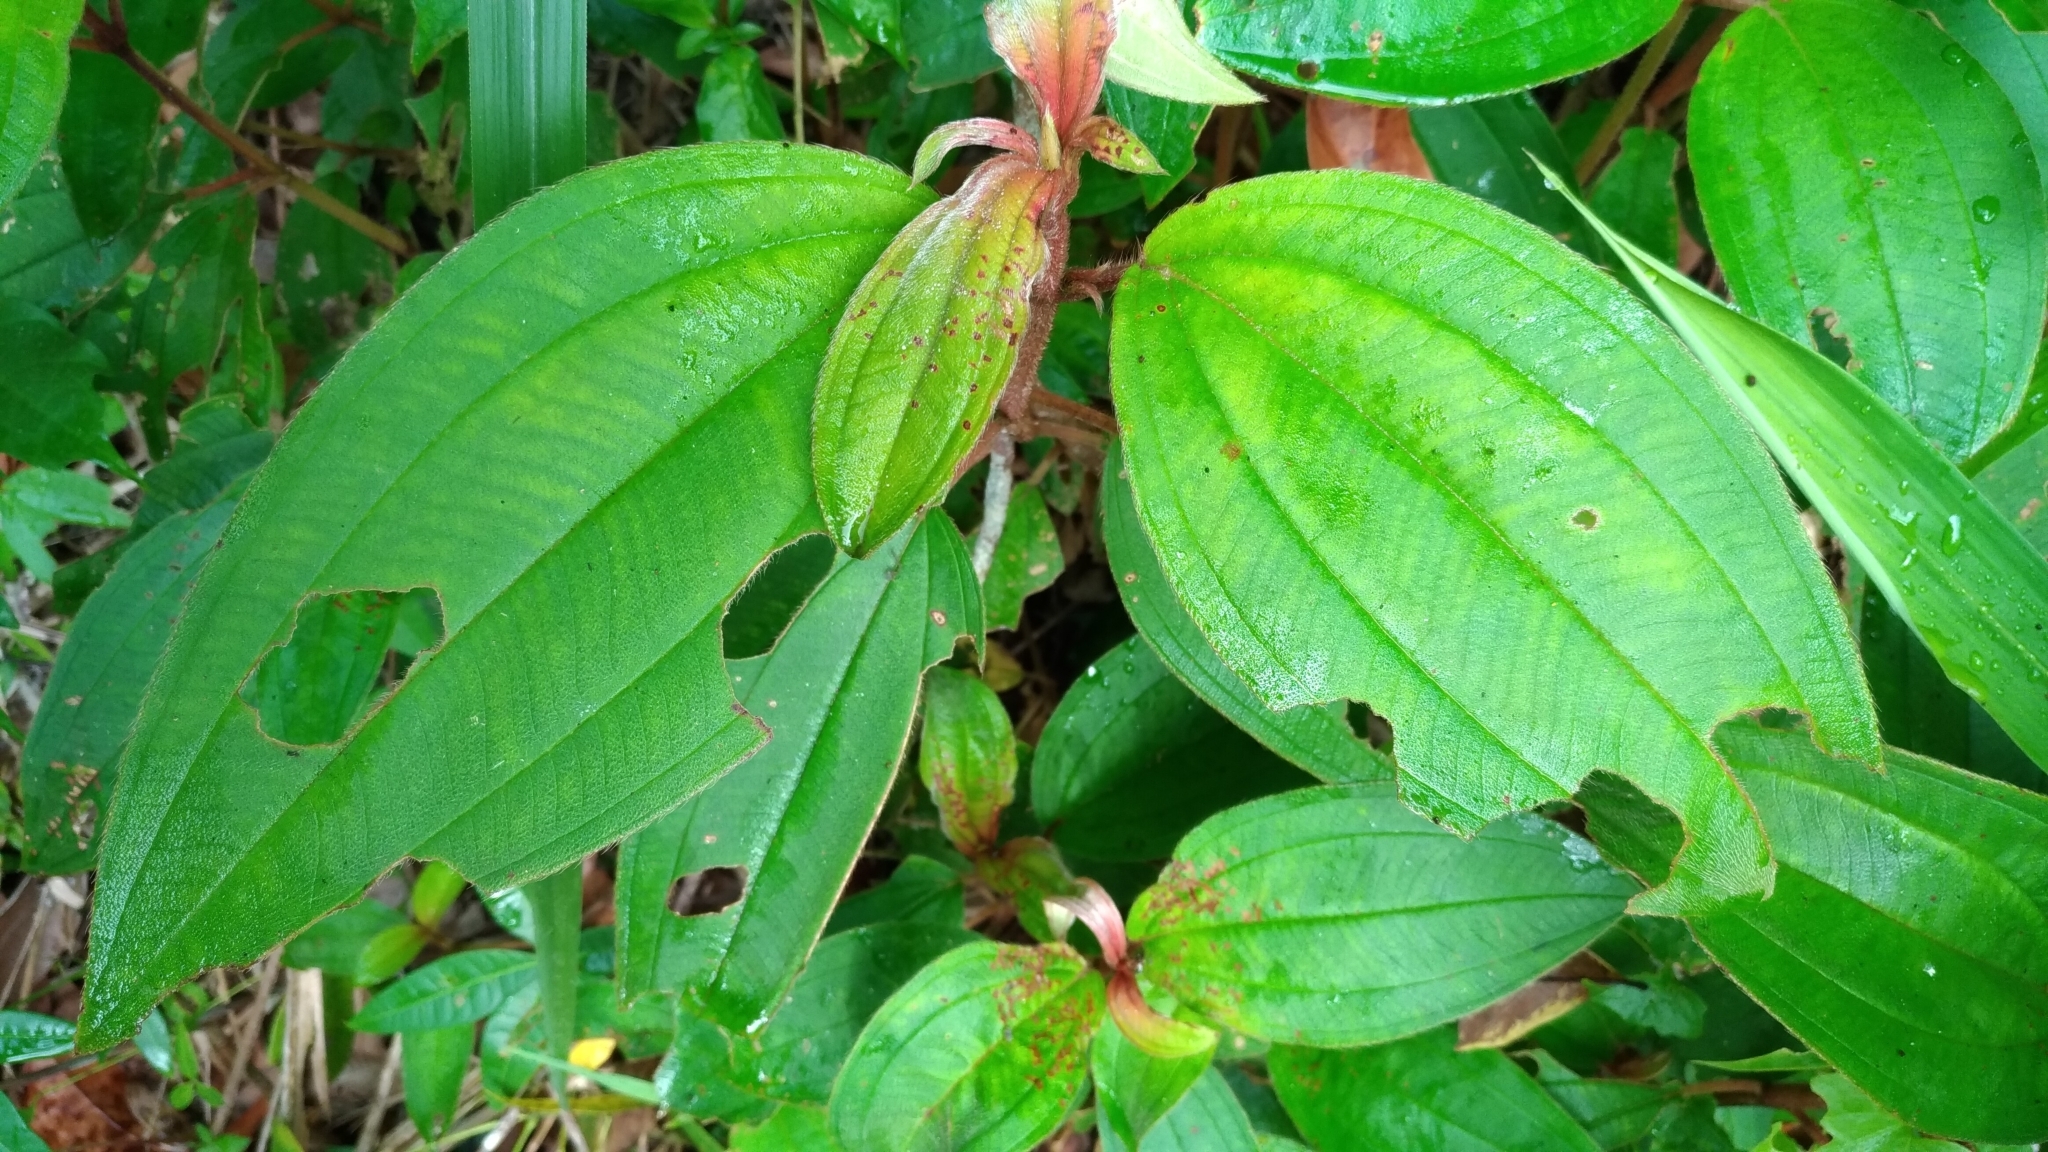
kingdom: Plantae
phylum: Tracheophyta
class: Magnoliopsida
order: Myrtales
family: Melastomataceae
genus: Melastoma
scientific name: Melastoma malabathricum
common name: Indian-rhododendron
